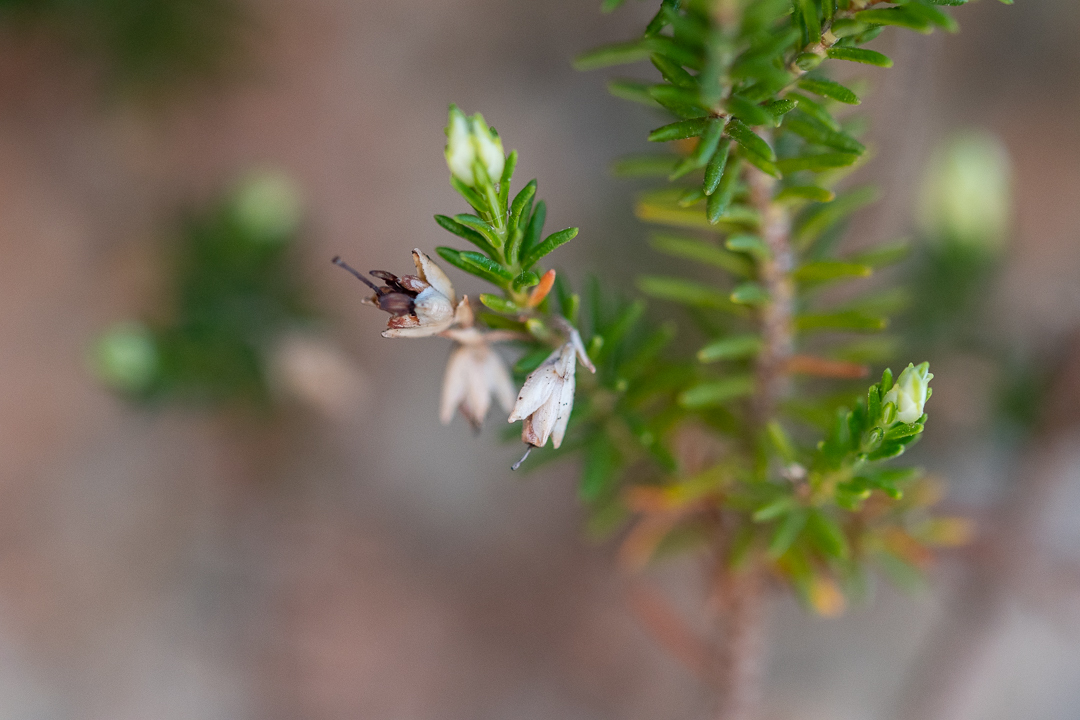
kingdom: Plantae
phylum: Tracheophyta
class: Magnoliopsida
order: Ericales
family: Ericaceae
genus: Erica
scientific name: Erica imbricata
